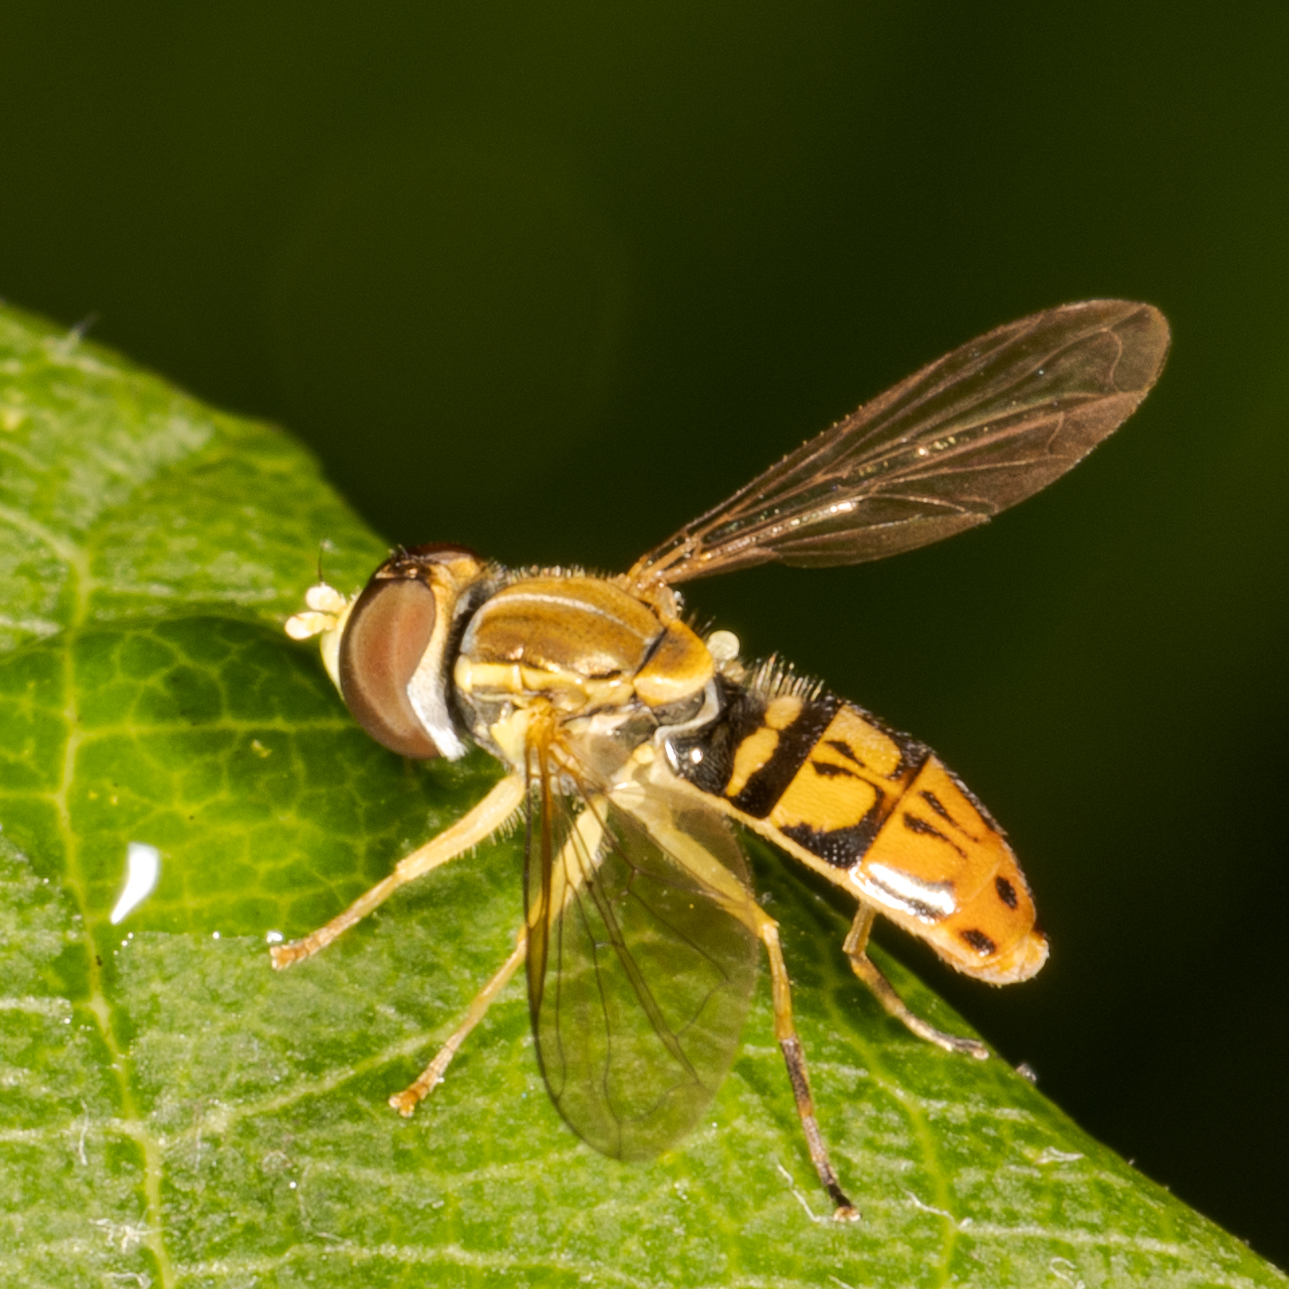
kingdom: Animalia
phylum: Arthropoda
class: Insecta
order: Diptera
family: Syrphidae
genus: Toxomerus
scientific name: Toxomerus marginatus
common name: Syrphid fly
